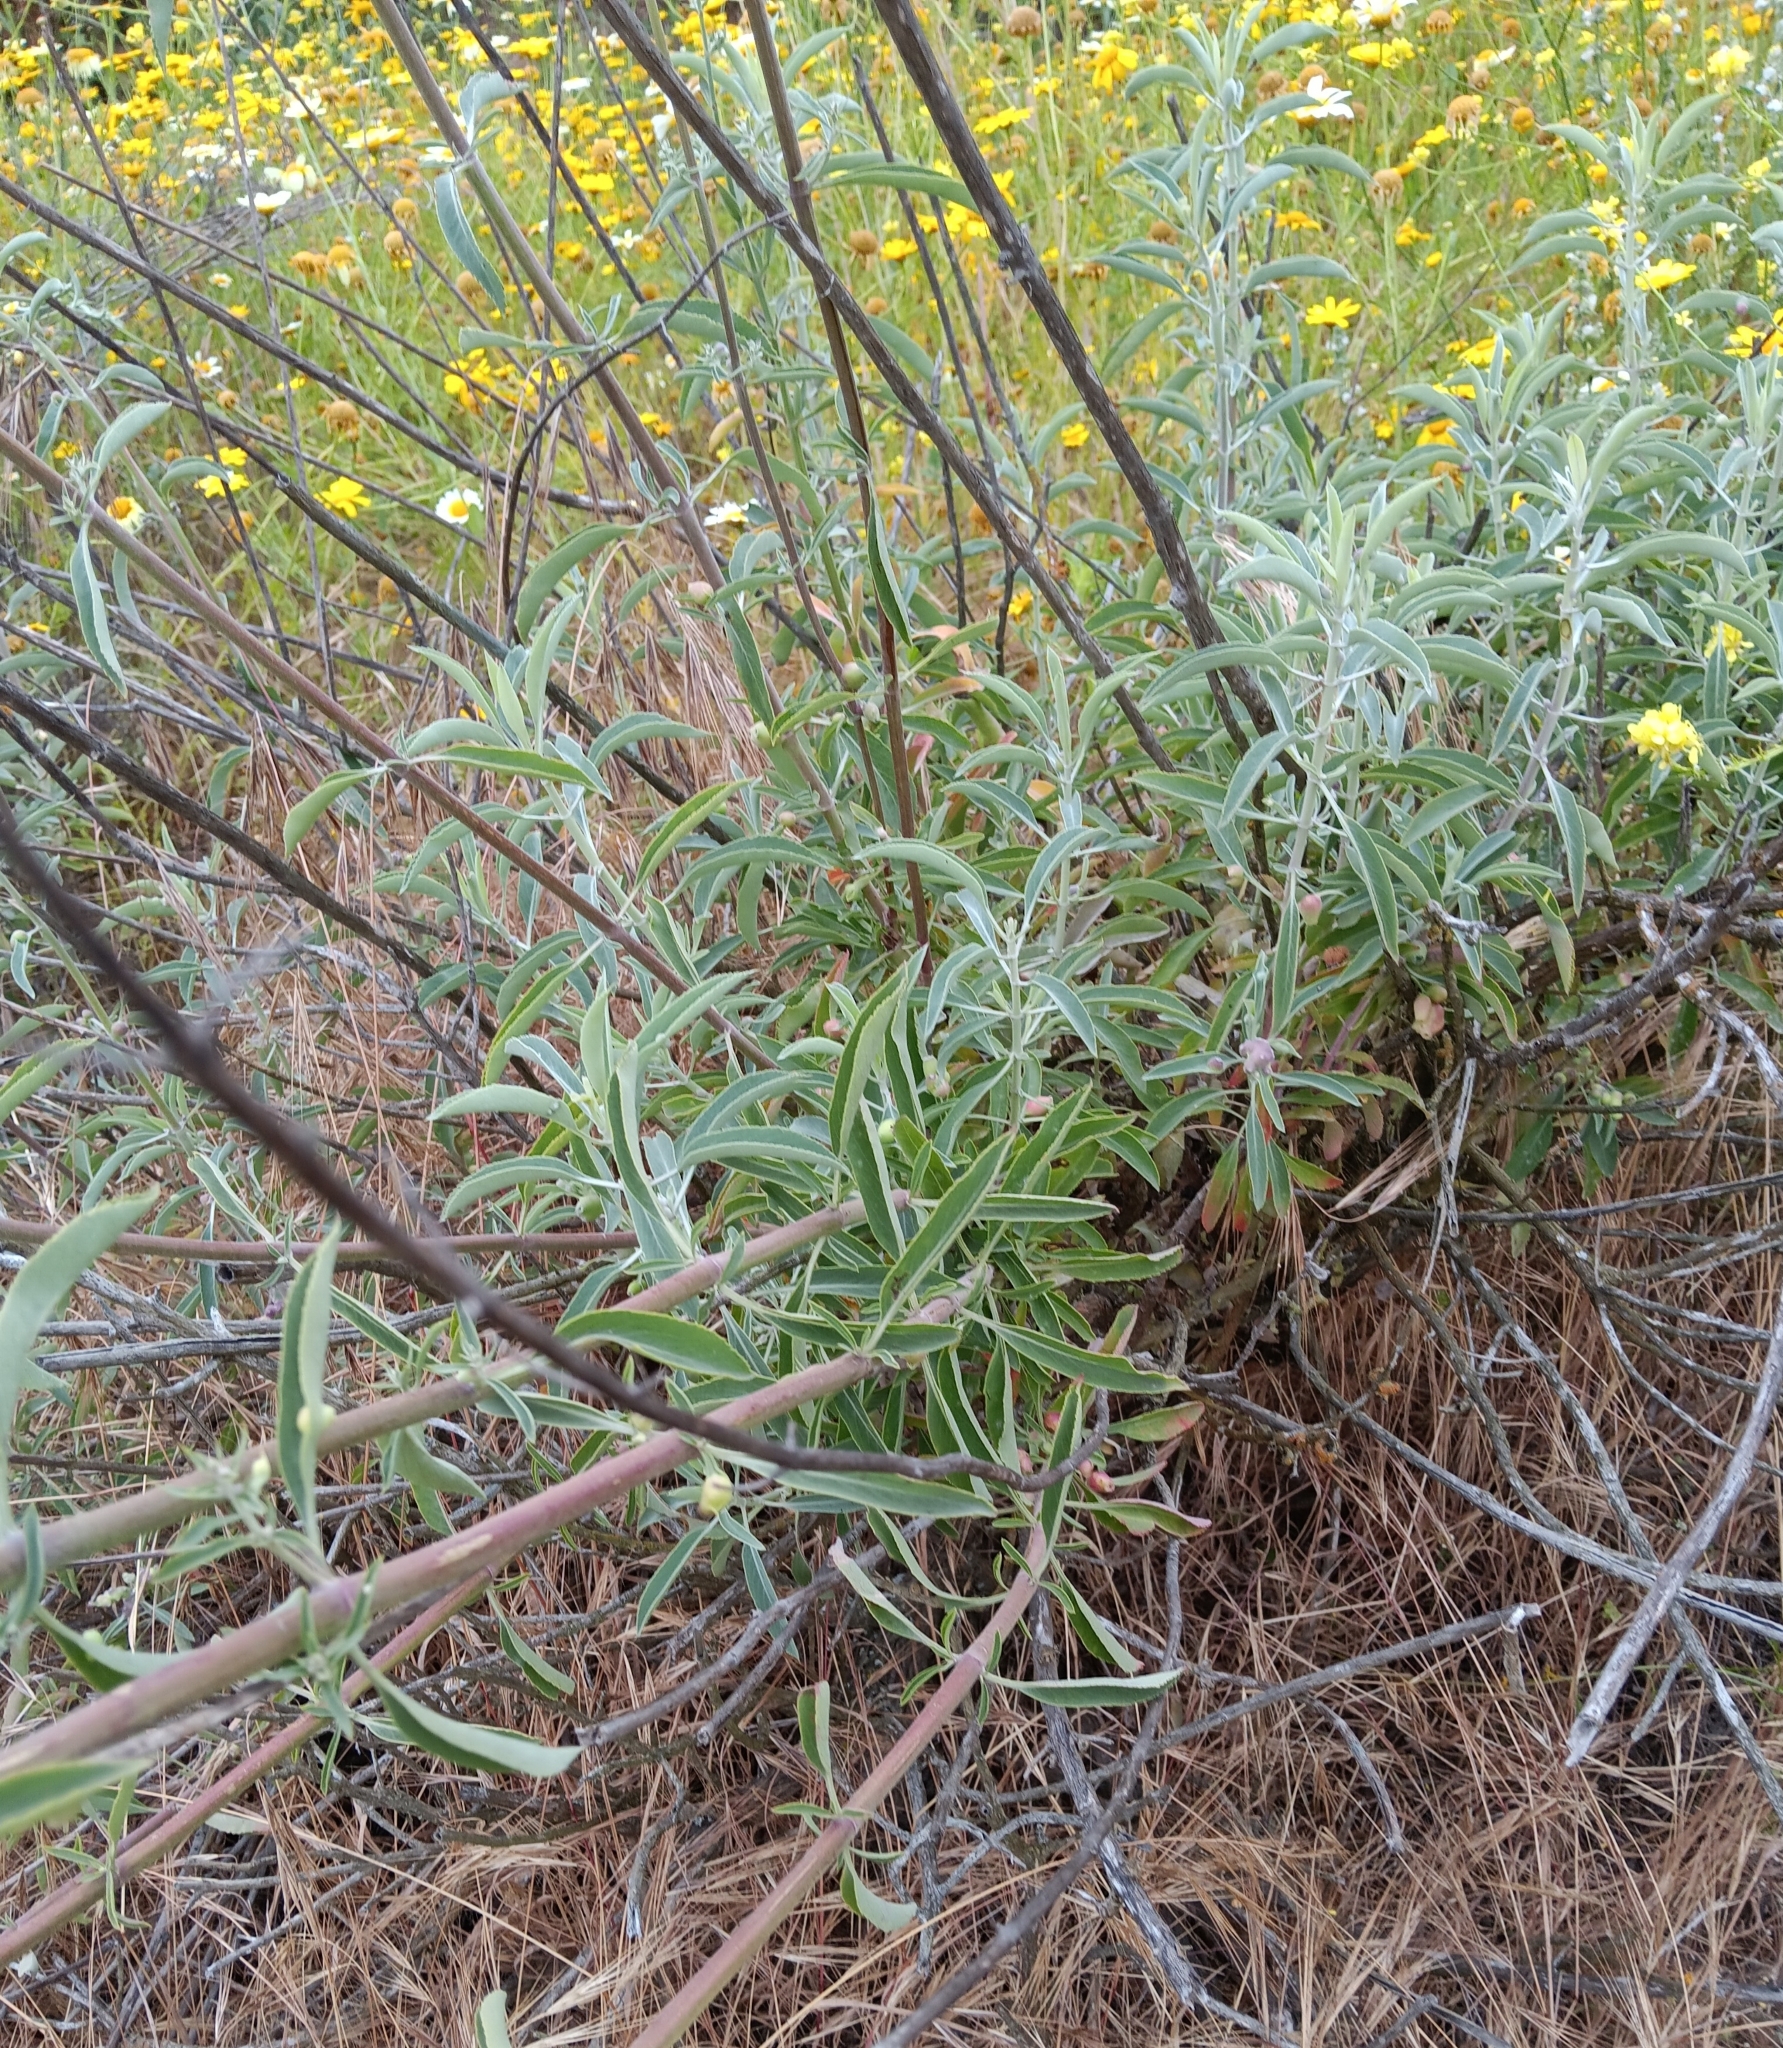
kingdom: Plantae
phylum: Tracheophyta
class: Magnoliopsida
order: Lamiales
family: Lamiaceae
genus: Salvia
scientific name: Salvia apiana
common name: White sage
